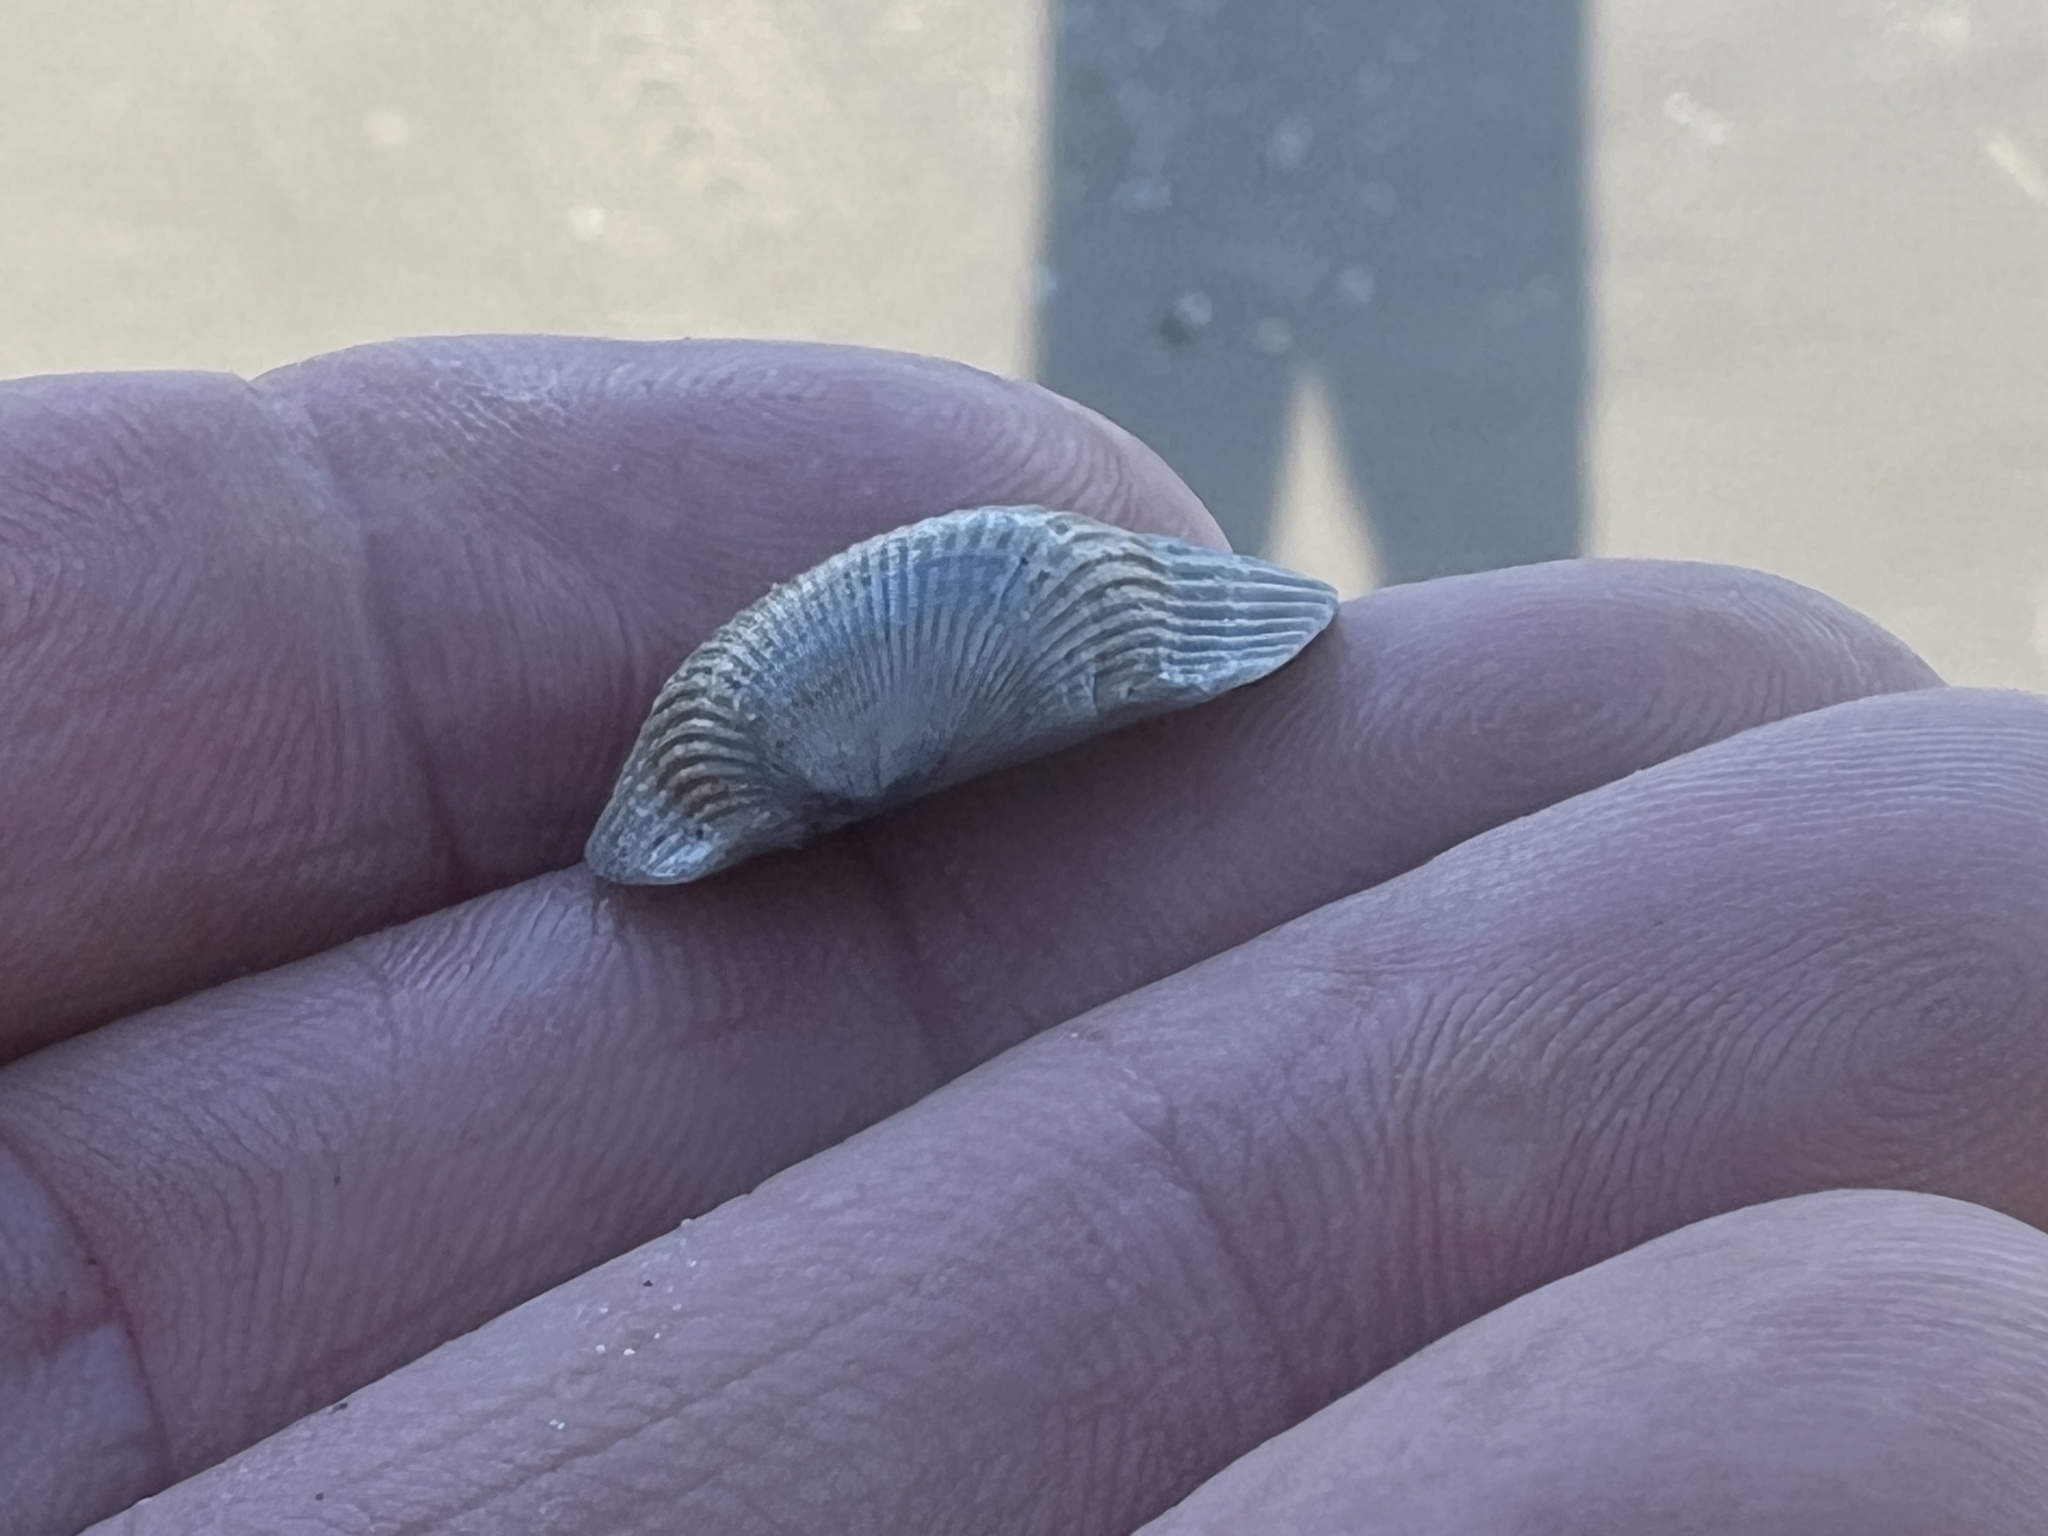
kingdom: Animalia
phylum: Mollusca
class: Bivalvia
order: Arcida
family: Arcidae
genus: Anadara
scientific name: Anadara transversa
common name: Transverse ark
